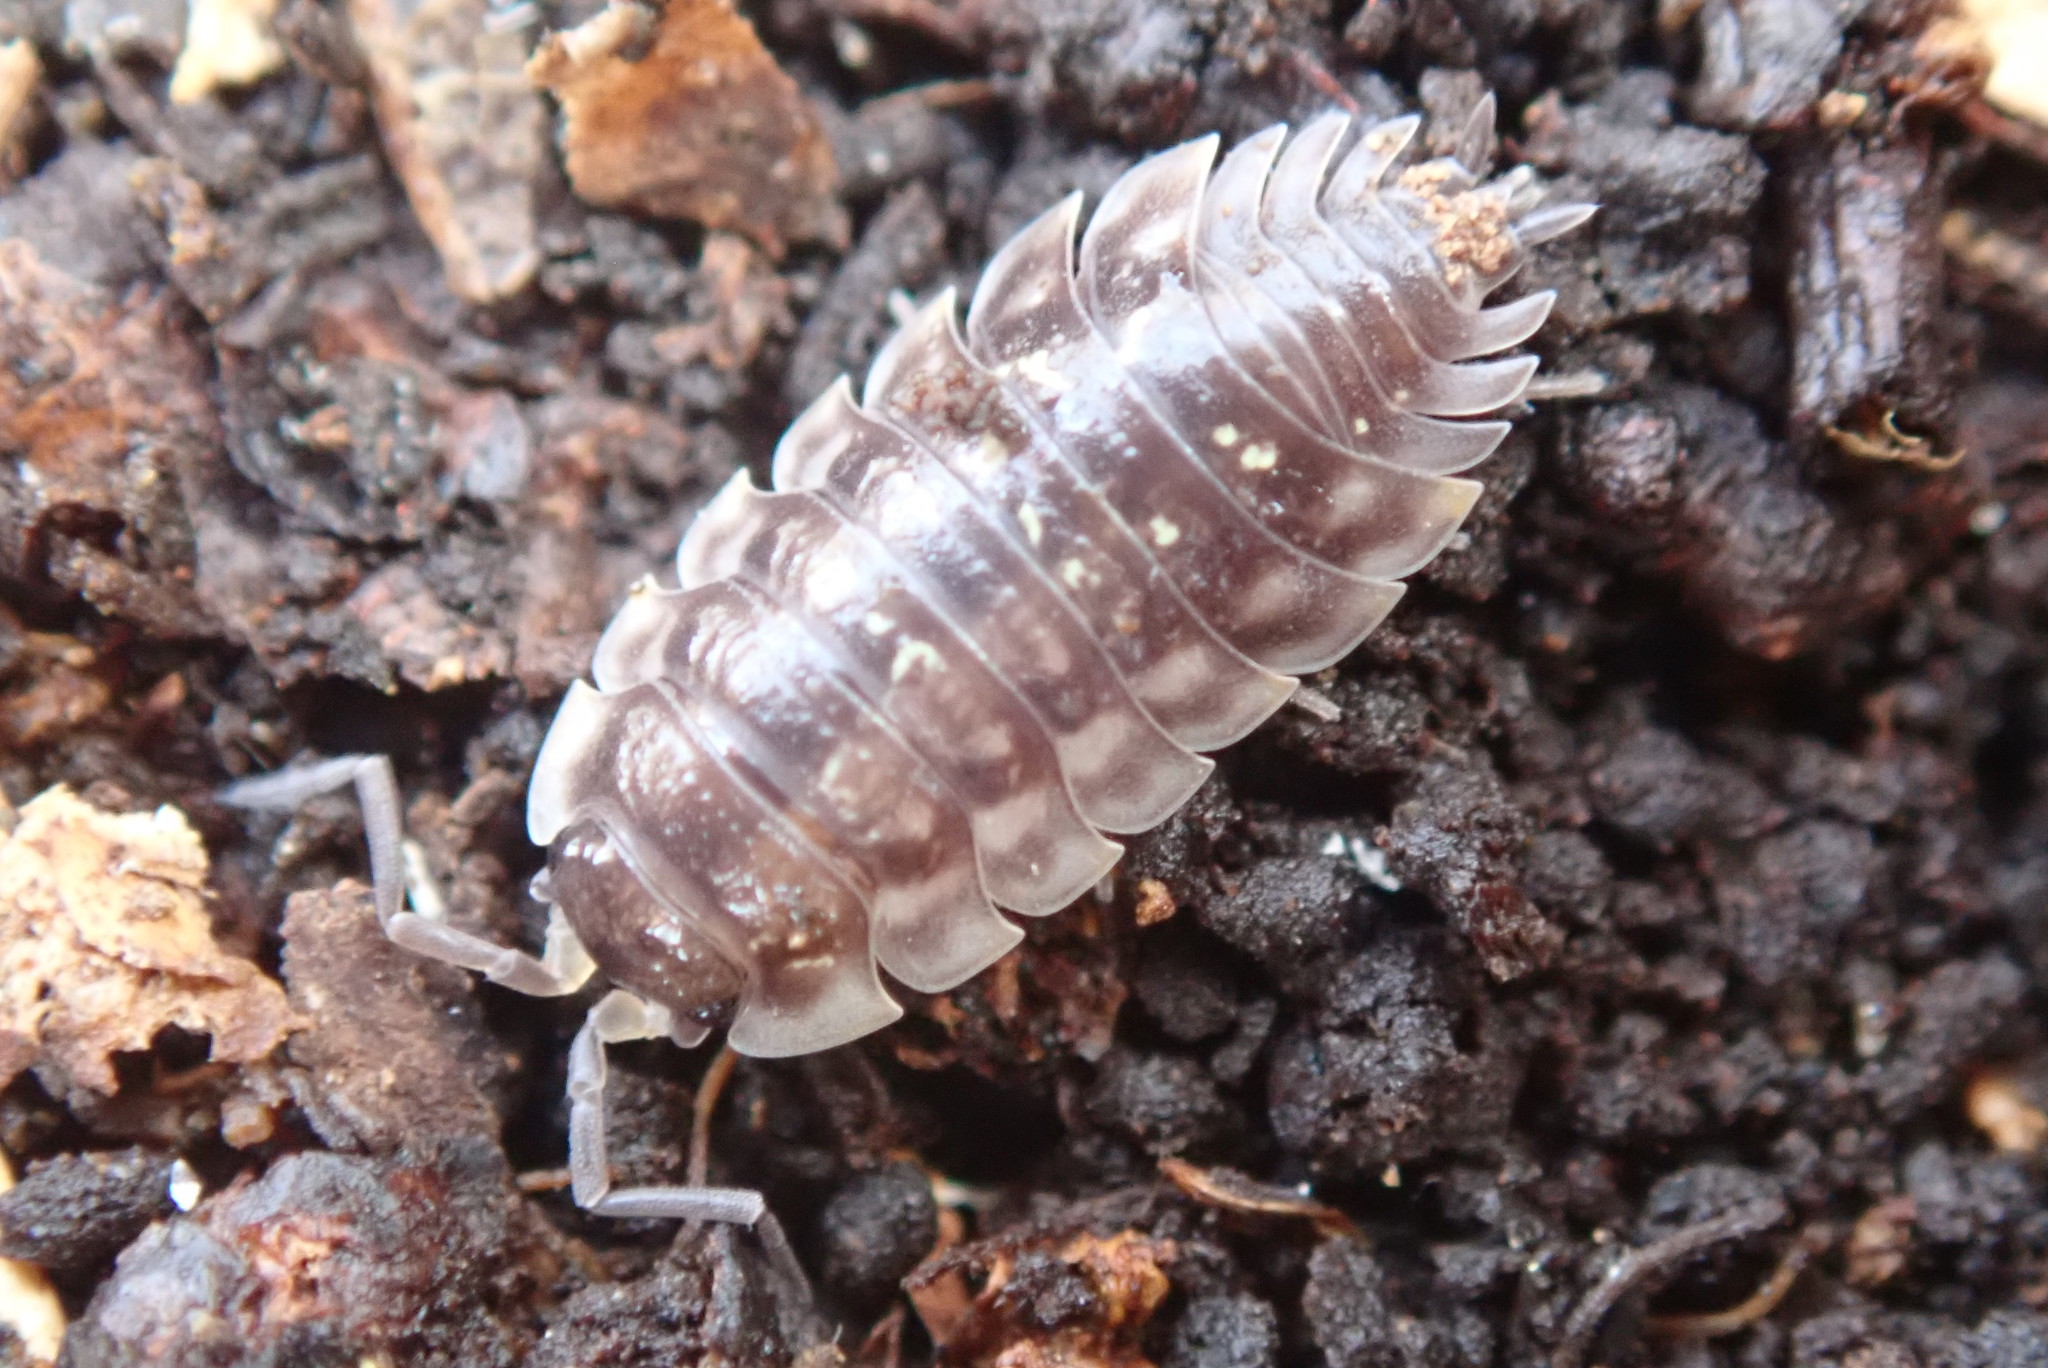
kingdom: Animalia
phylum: Arthropoda
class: Malacostraca
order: Isopoda
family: Oniscidae
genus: Oniscus
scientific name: Oniscus asellus
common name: Common shiny woodlouse
